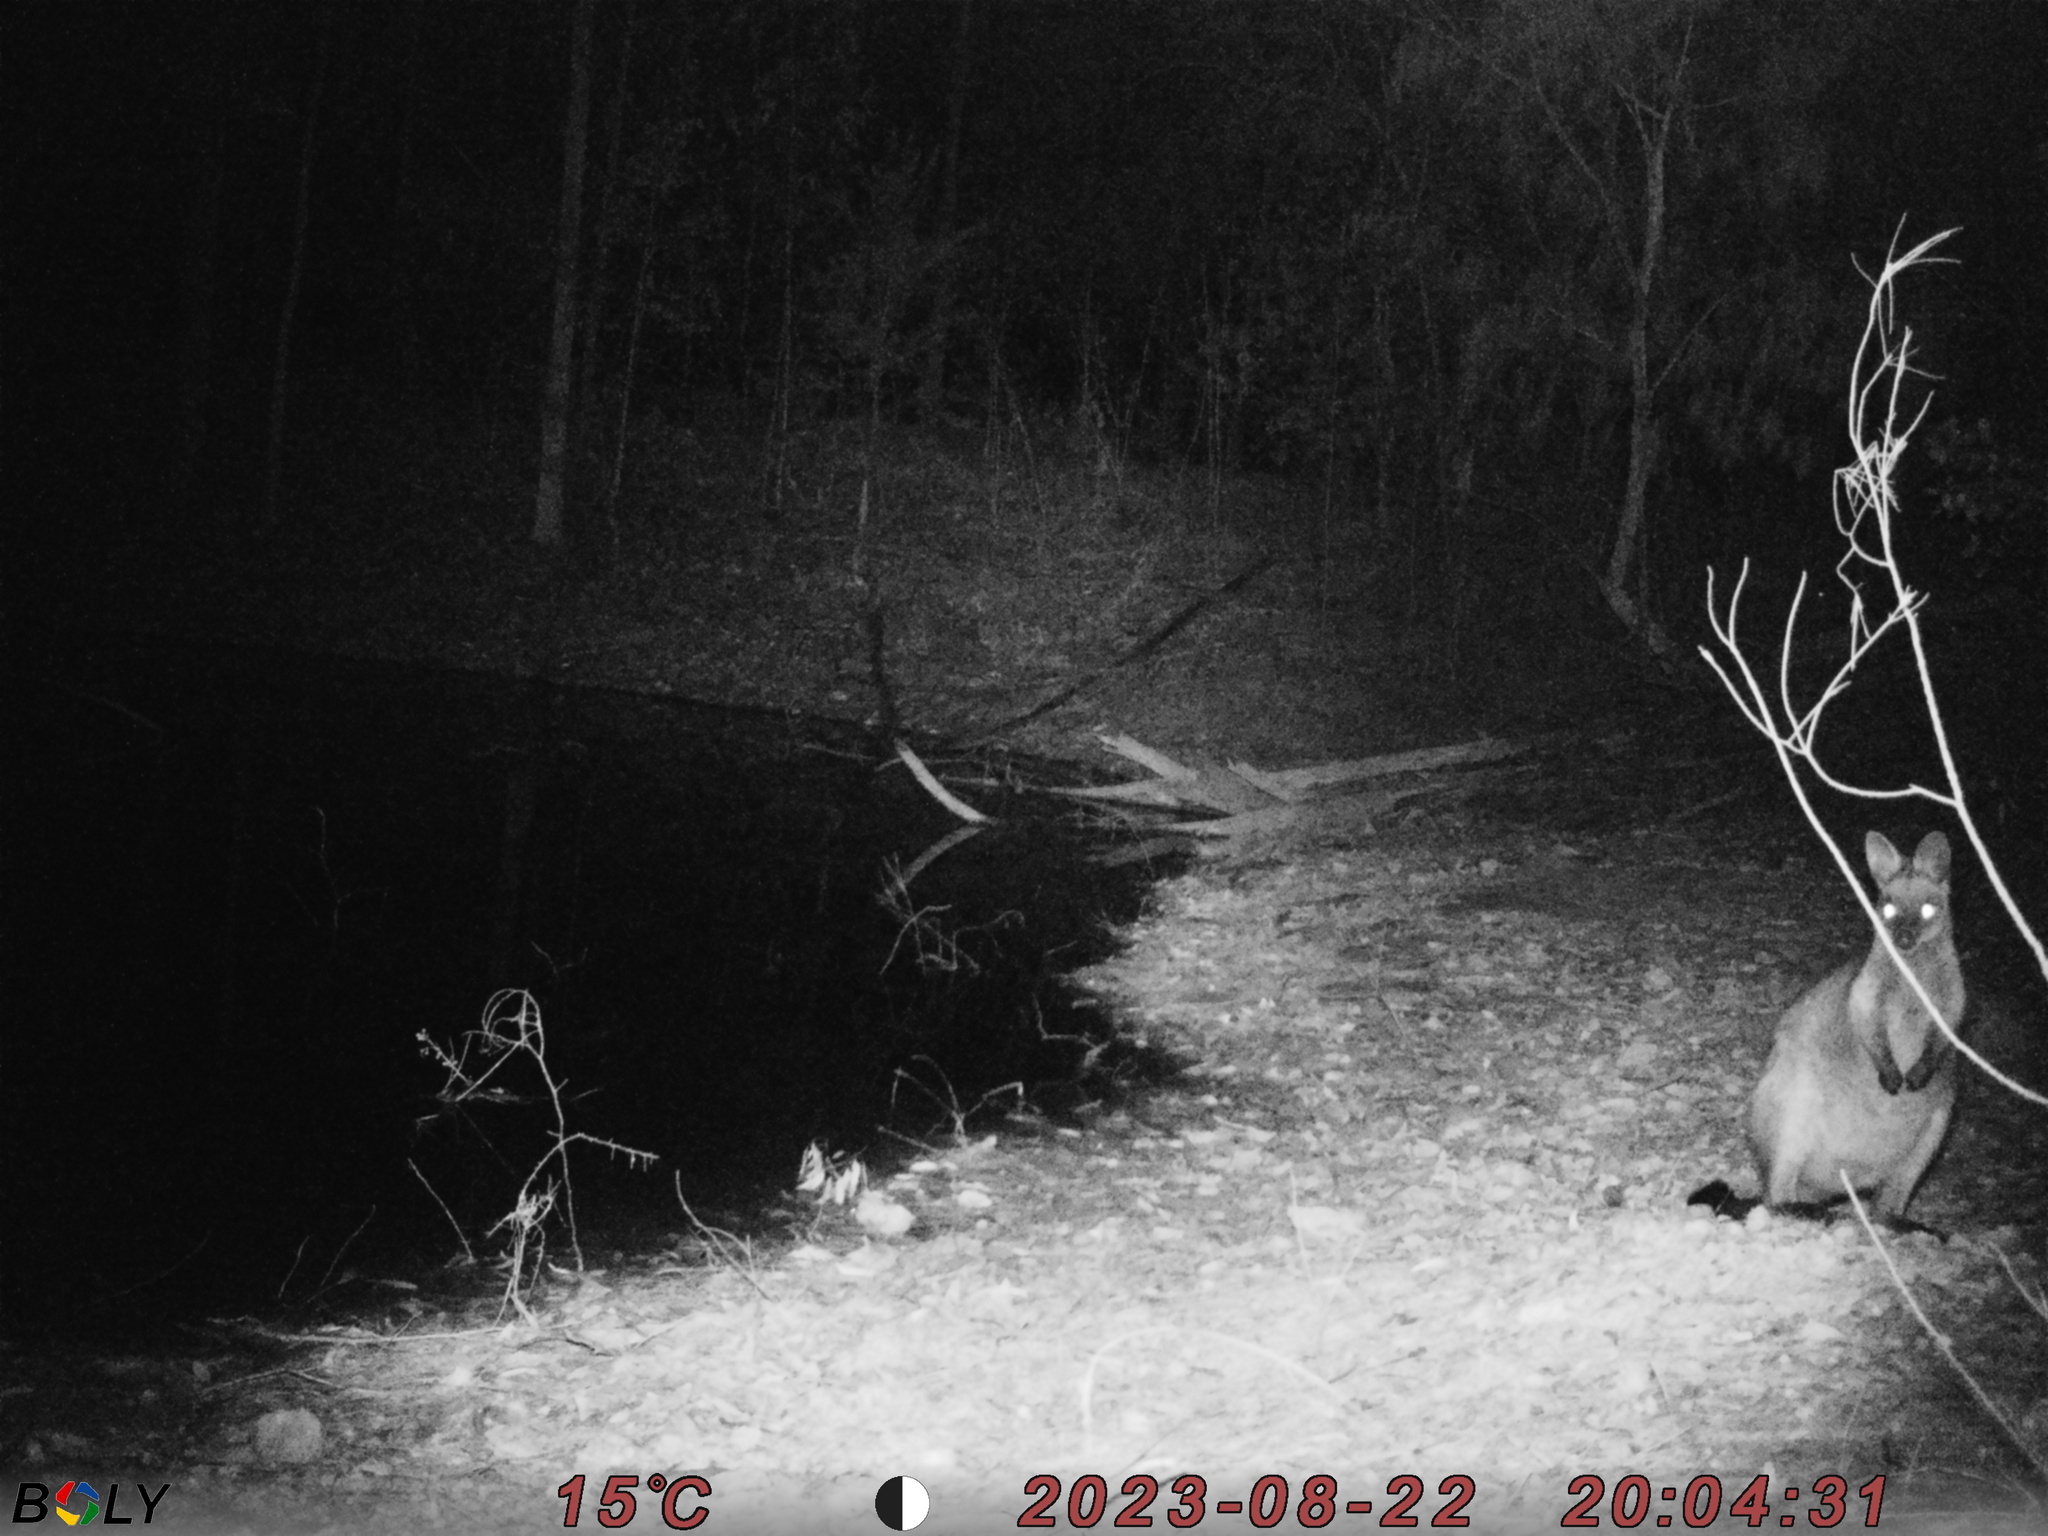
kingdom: Animalia
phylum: Chordata
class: Mammalia
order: Diprotodontia
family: Macropodidae
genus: Wallabia
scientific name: Wallabia bicolor
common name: Swamp wallaby
